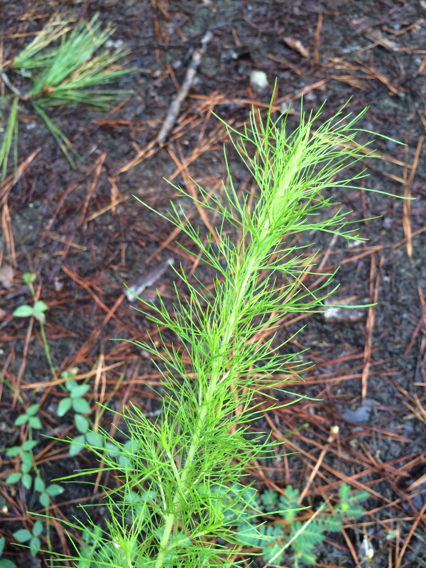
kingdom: Plantae
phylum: Tracheophyta
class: Magnoliopsida
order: Asterales
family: Asteraceae
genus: Eupatorium
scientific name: Eupatorium capillifolium
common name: Dog-fennel
